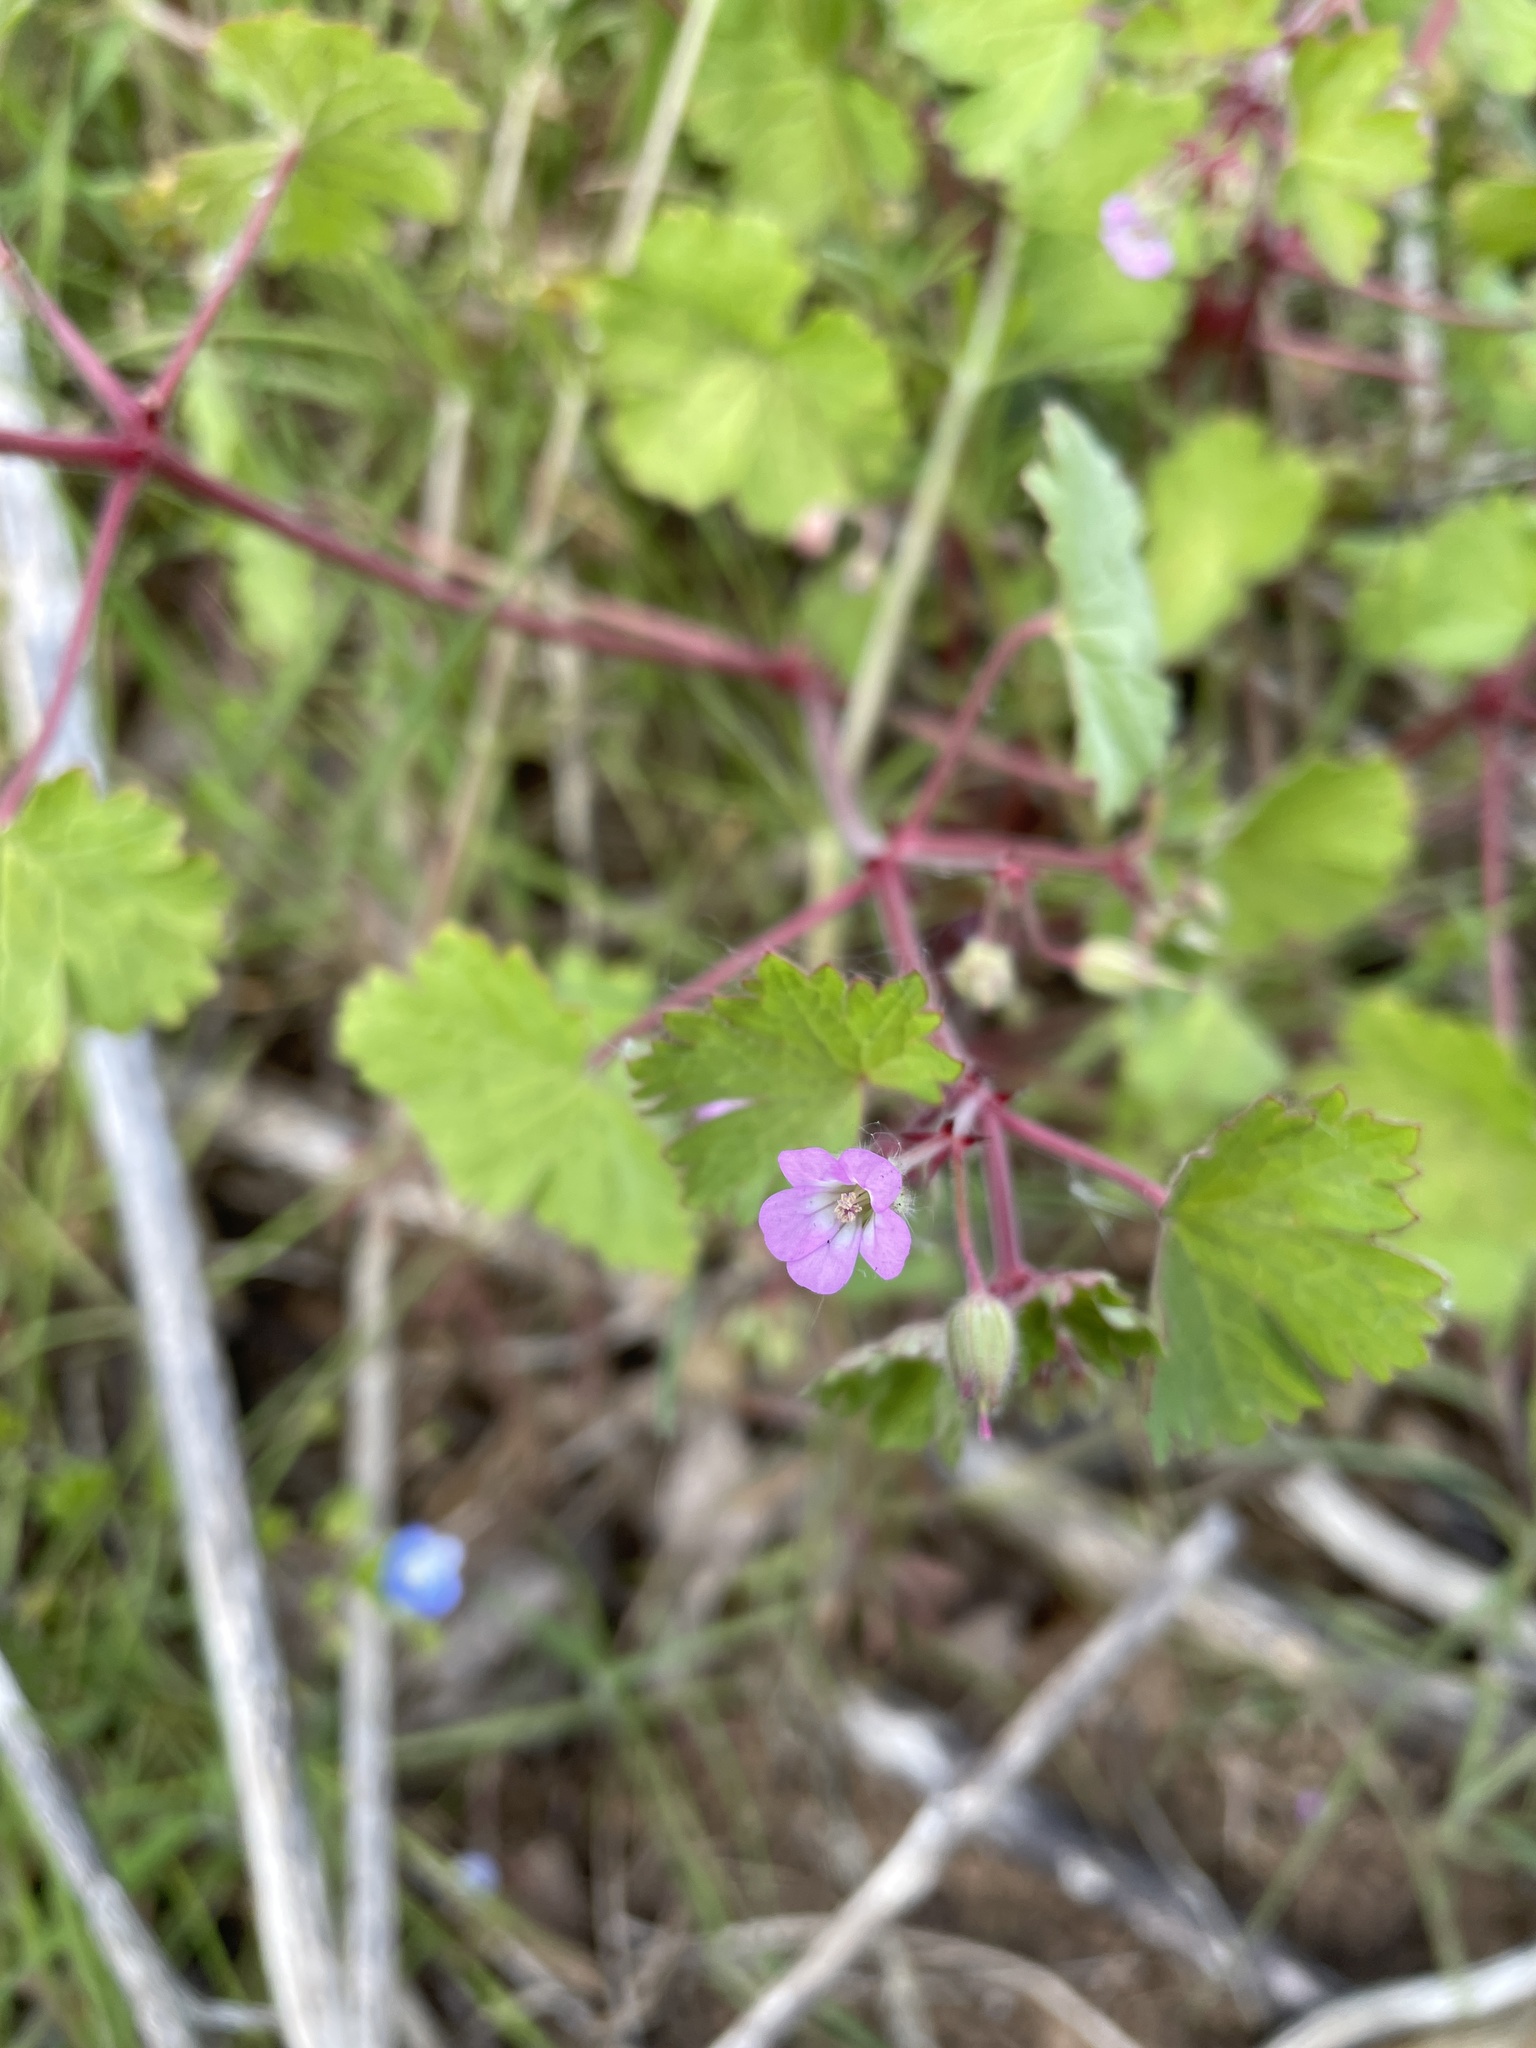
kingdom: Plantae
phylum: Tracheophyta
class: Magnoliopsida
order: Geraniales
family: Geraniaceae
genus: Geranium
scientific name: Geranium rotundifolium
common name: Round-leaved crane's-bill
